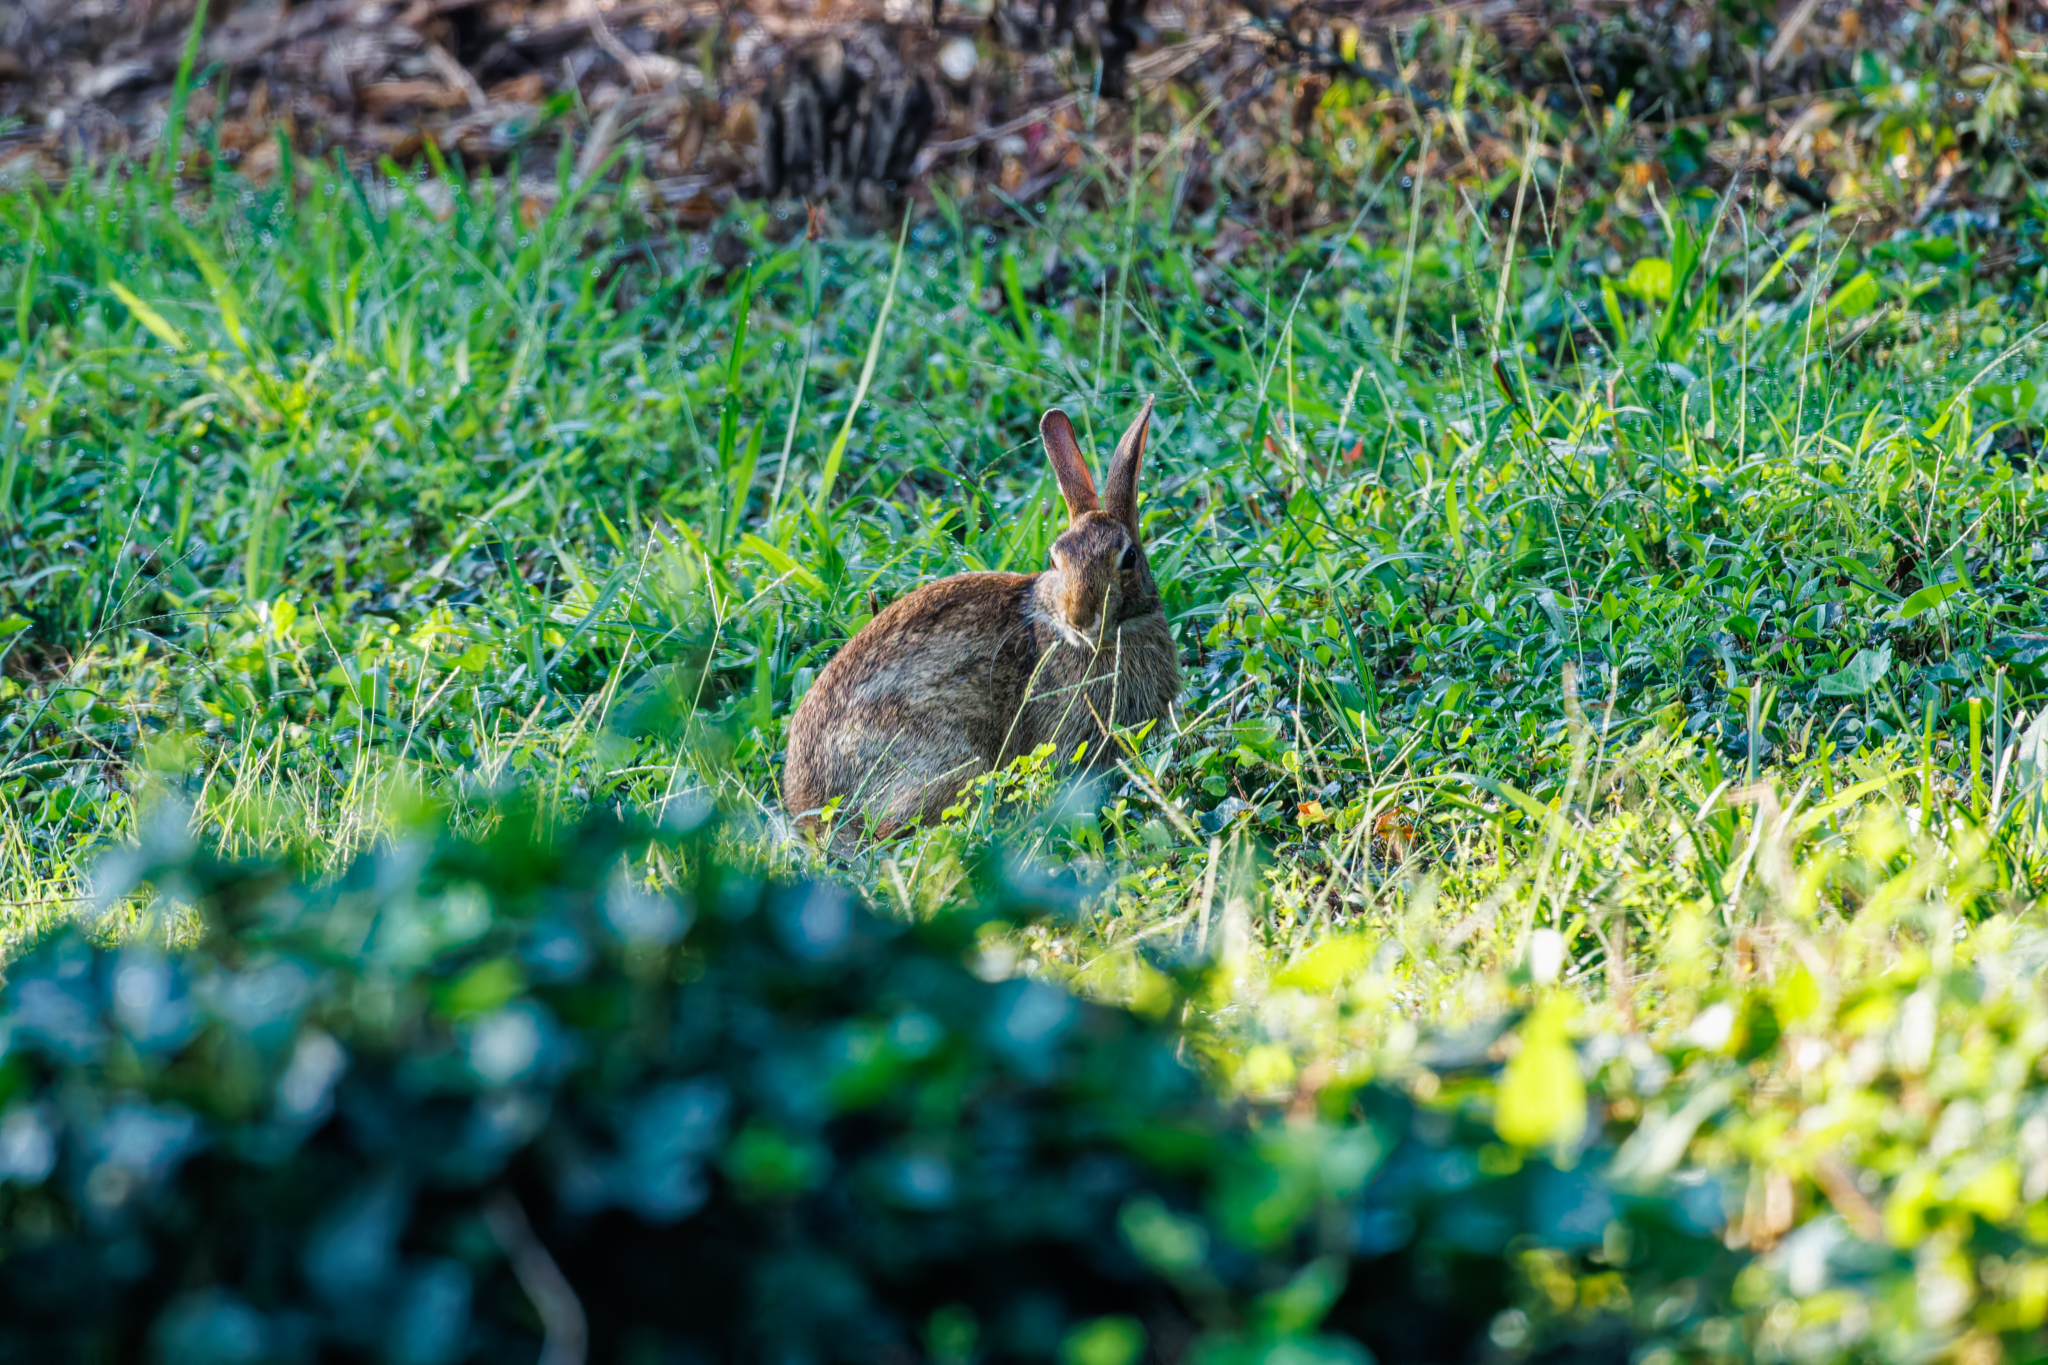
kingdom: Animalia
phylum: Chordata
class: Mammalia
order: Lagomorpha
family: Leporidae
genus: Sylvilagus
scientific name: Sylvilagus floridanus
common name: Eastern cottontail
